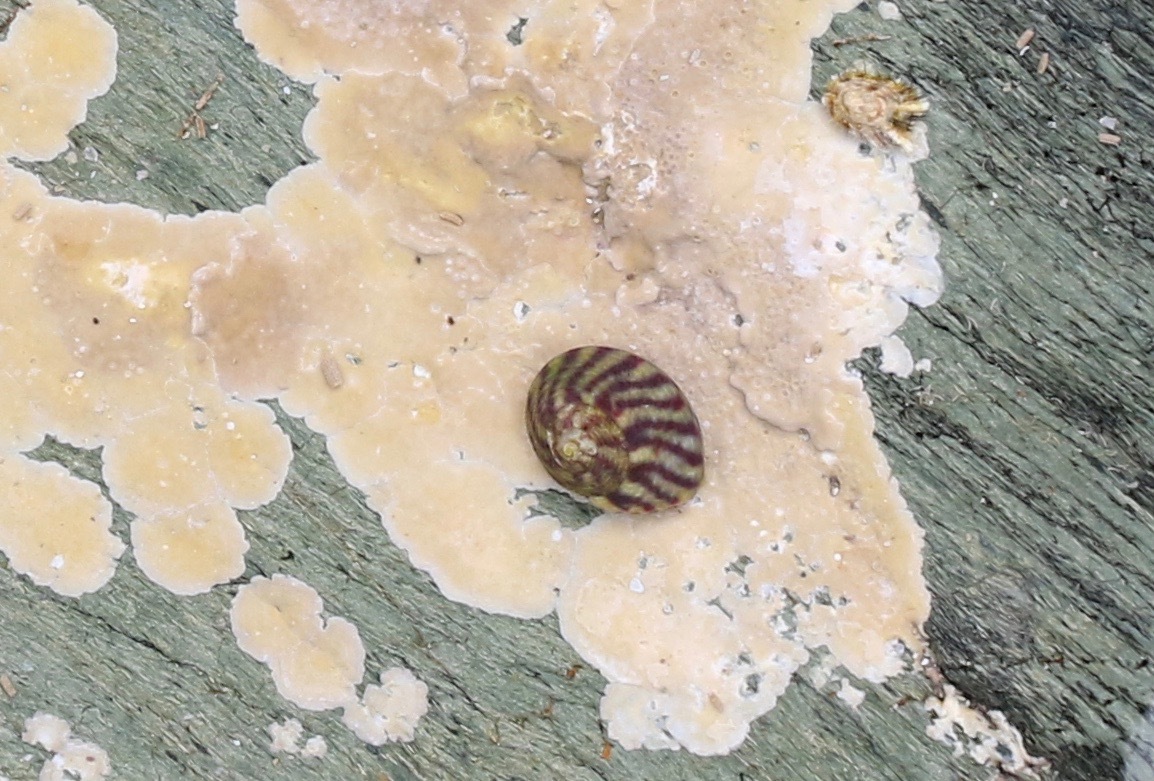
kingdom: Animalia
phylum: Mollusca
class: Gastropoda
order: Trochida
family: Trochidae
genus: Steromphala
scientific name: Steromphala umbilicalis
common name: Flat top shell
